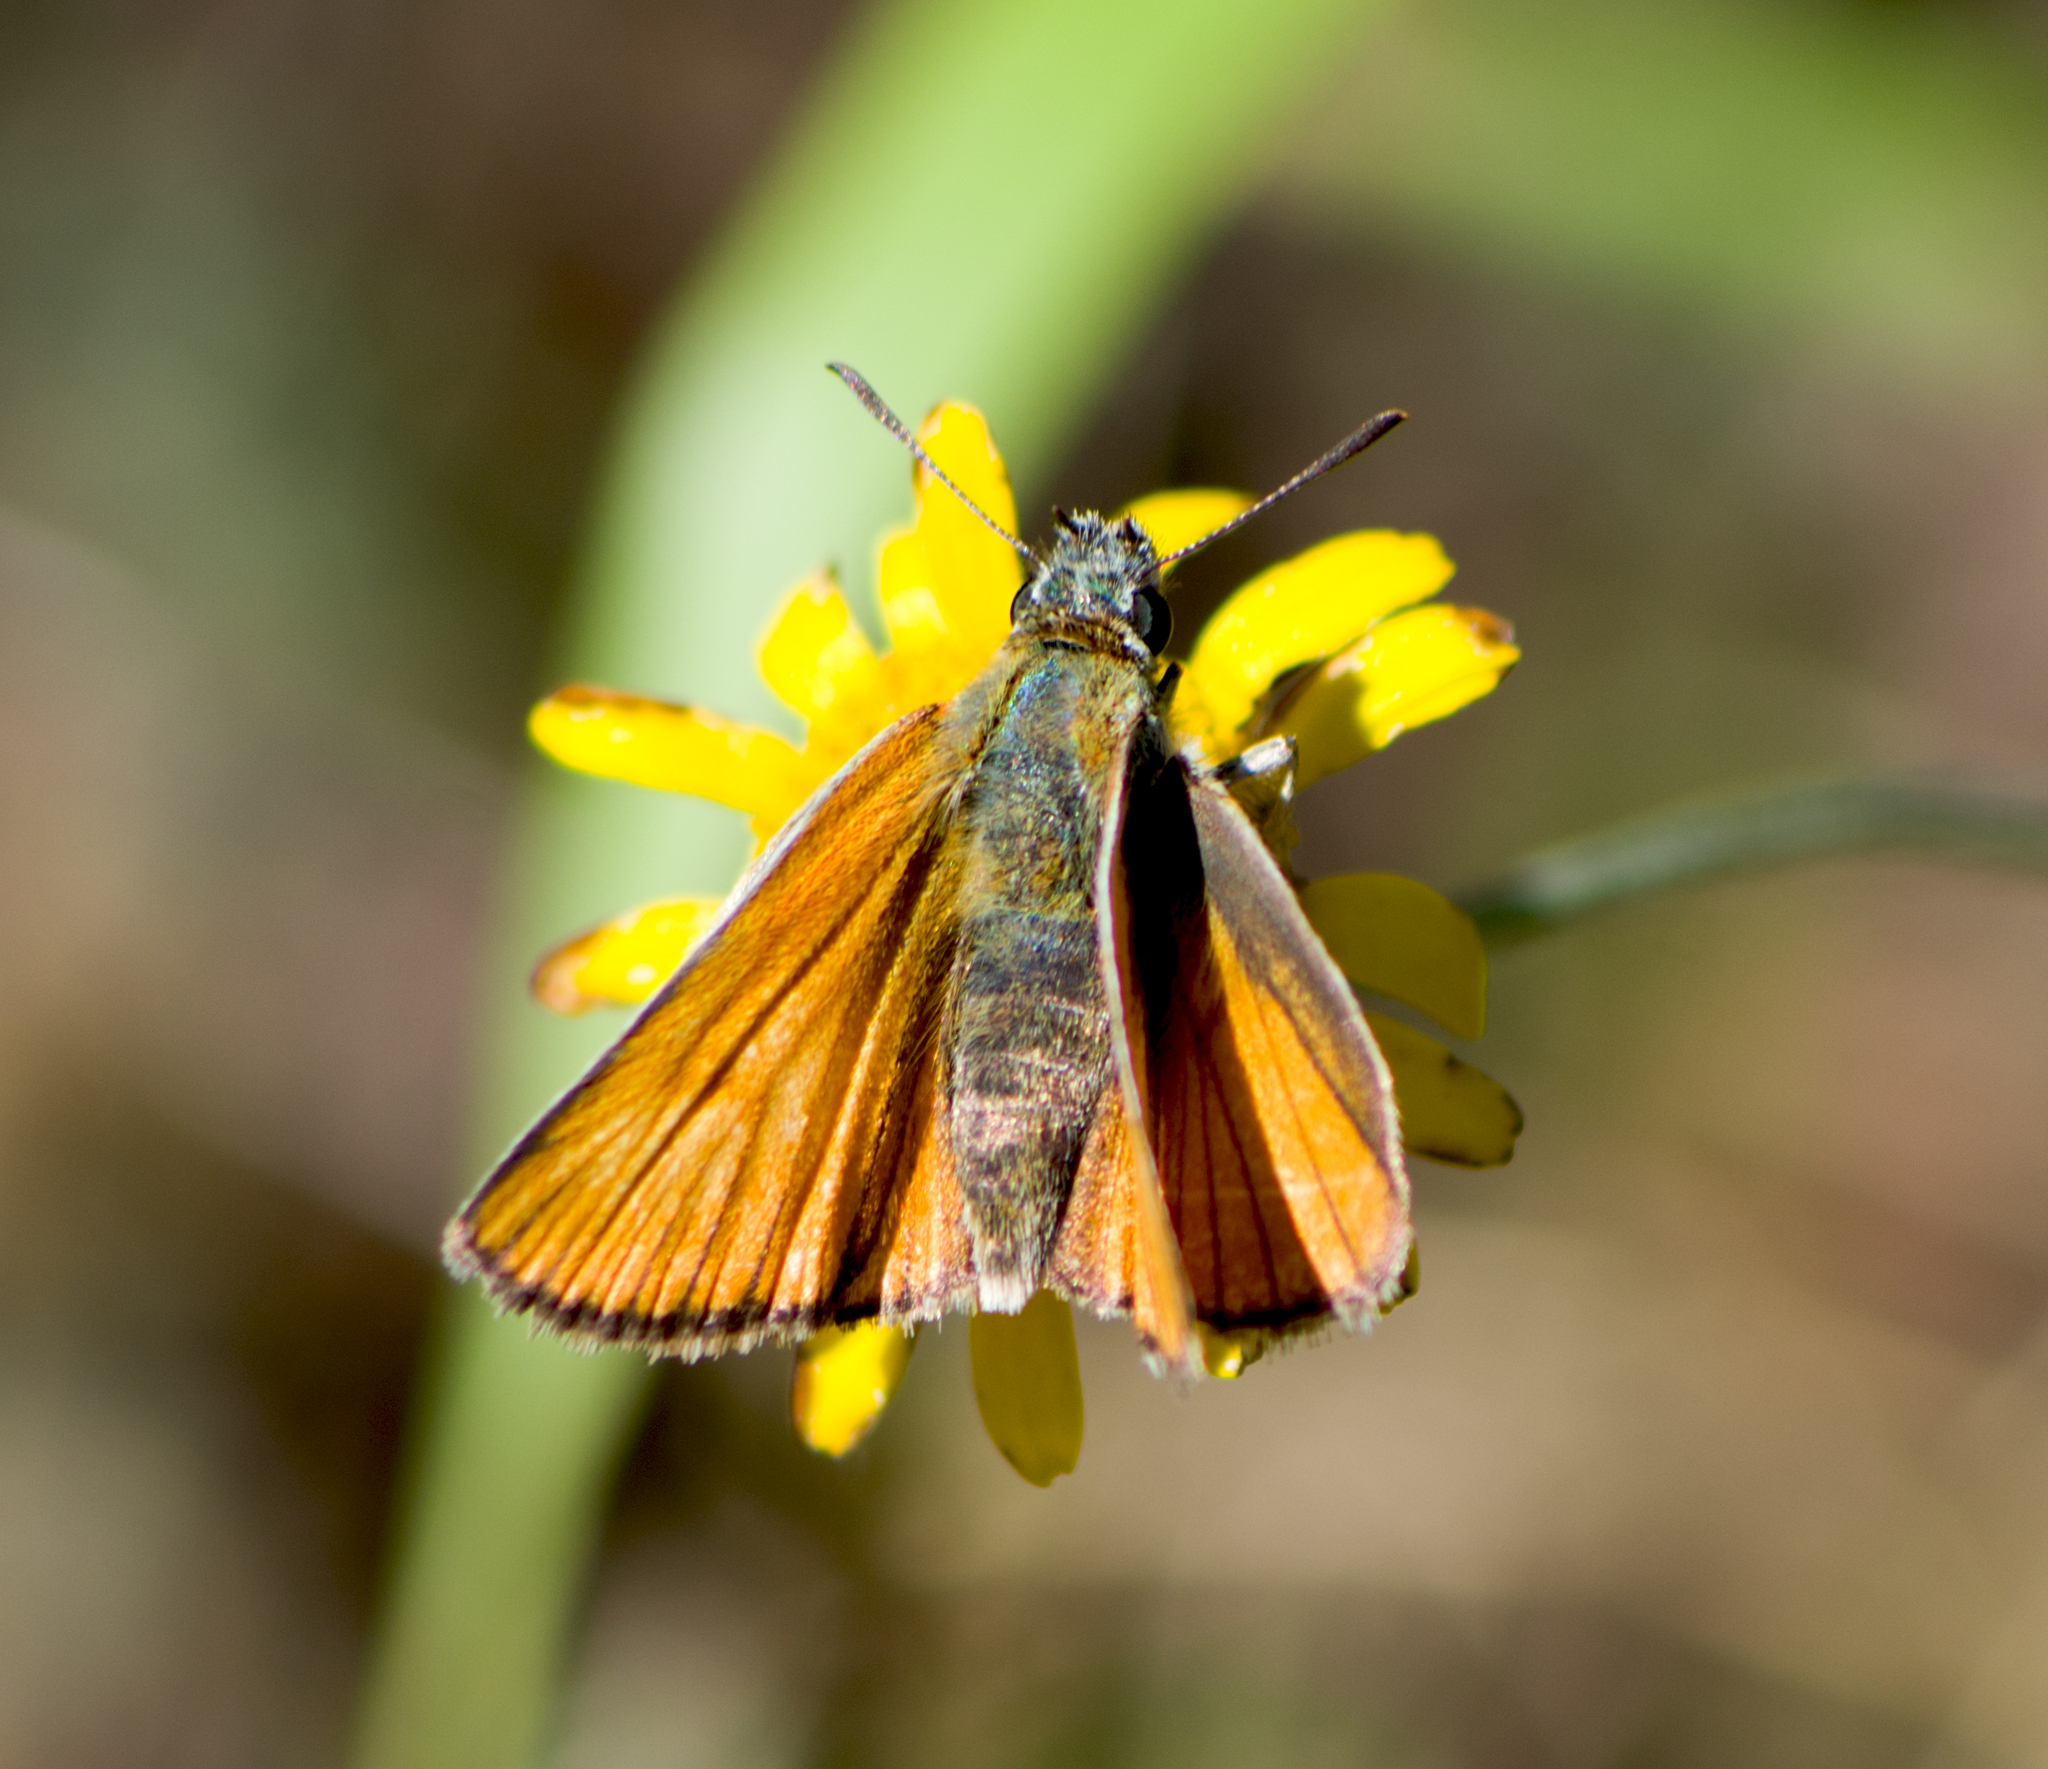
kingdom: Animalia
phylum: Arthropoda
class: Insecta
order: Lepidoptera
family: Hesperiidae
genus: Thymelicus
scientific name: Thymelicus sylvestris
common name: Small skipper
